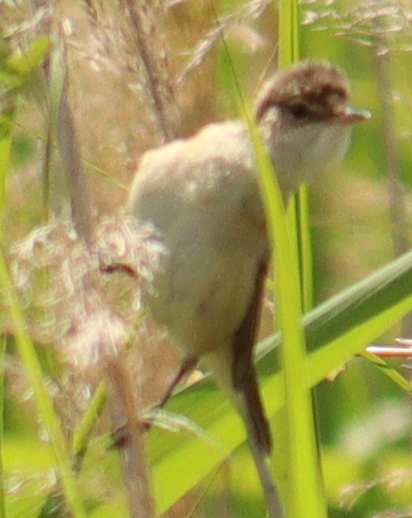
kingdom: Animalia
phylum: Chordata
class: Aves
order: Passeriformes
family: Acrocephalidae
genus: Acrocephalus
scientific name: Acrocephalus scirpaceus
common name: Eurasian reed warbler
